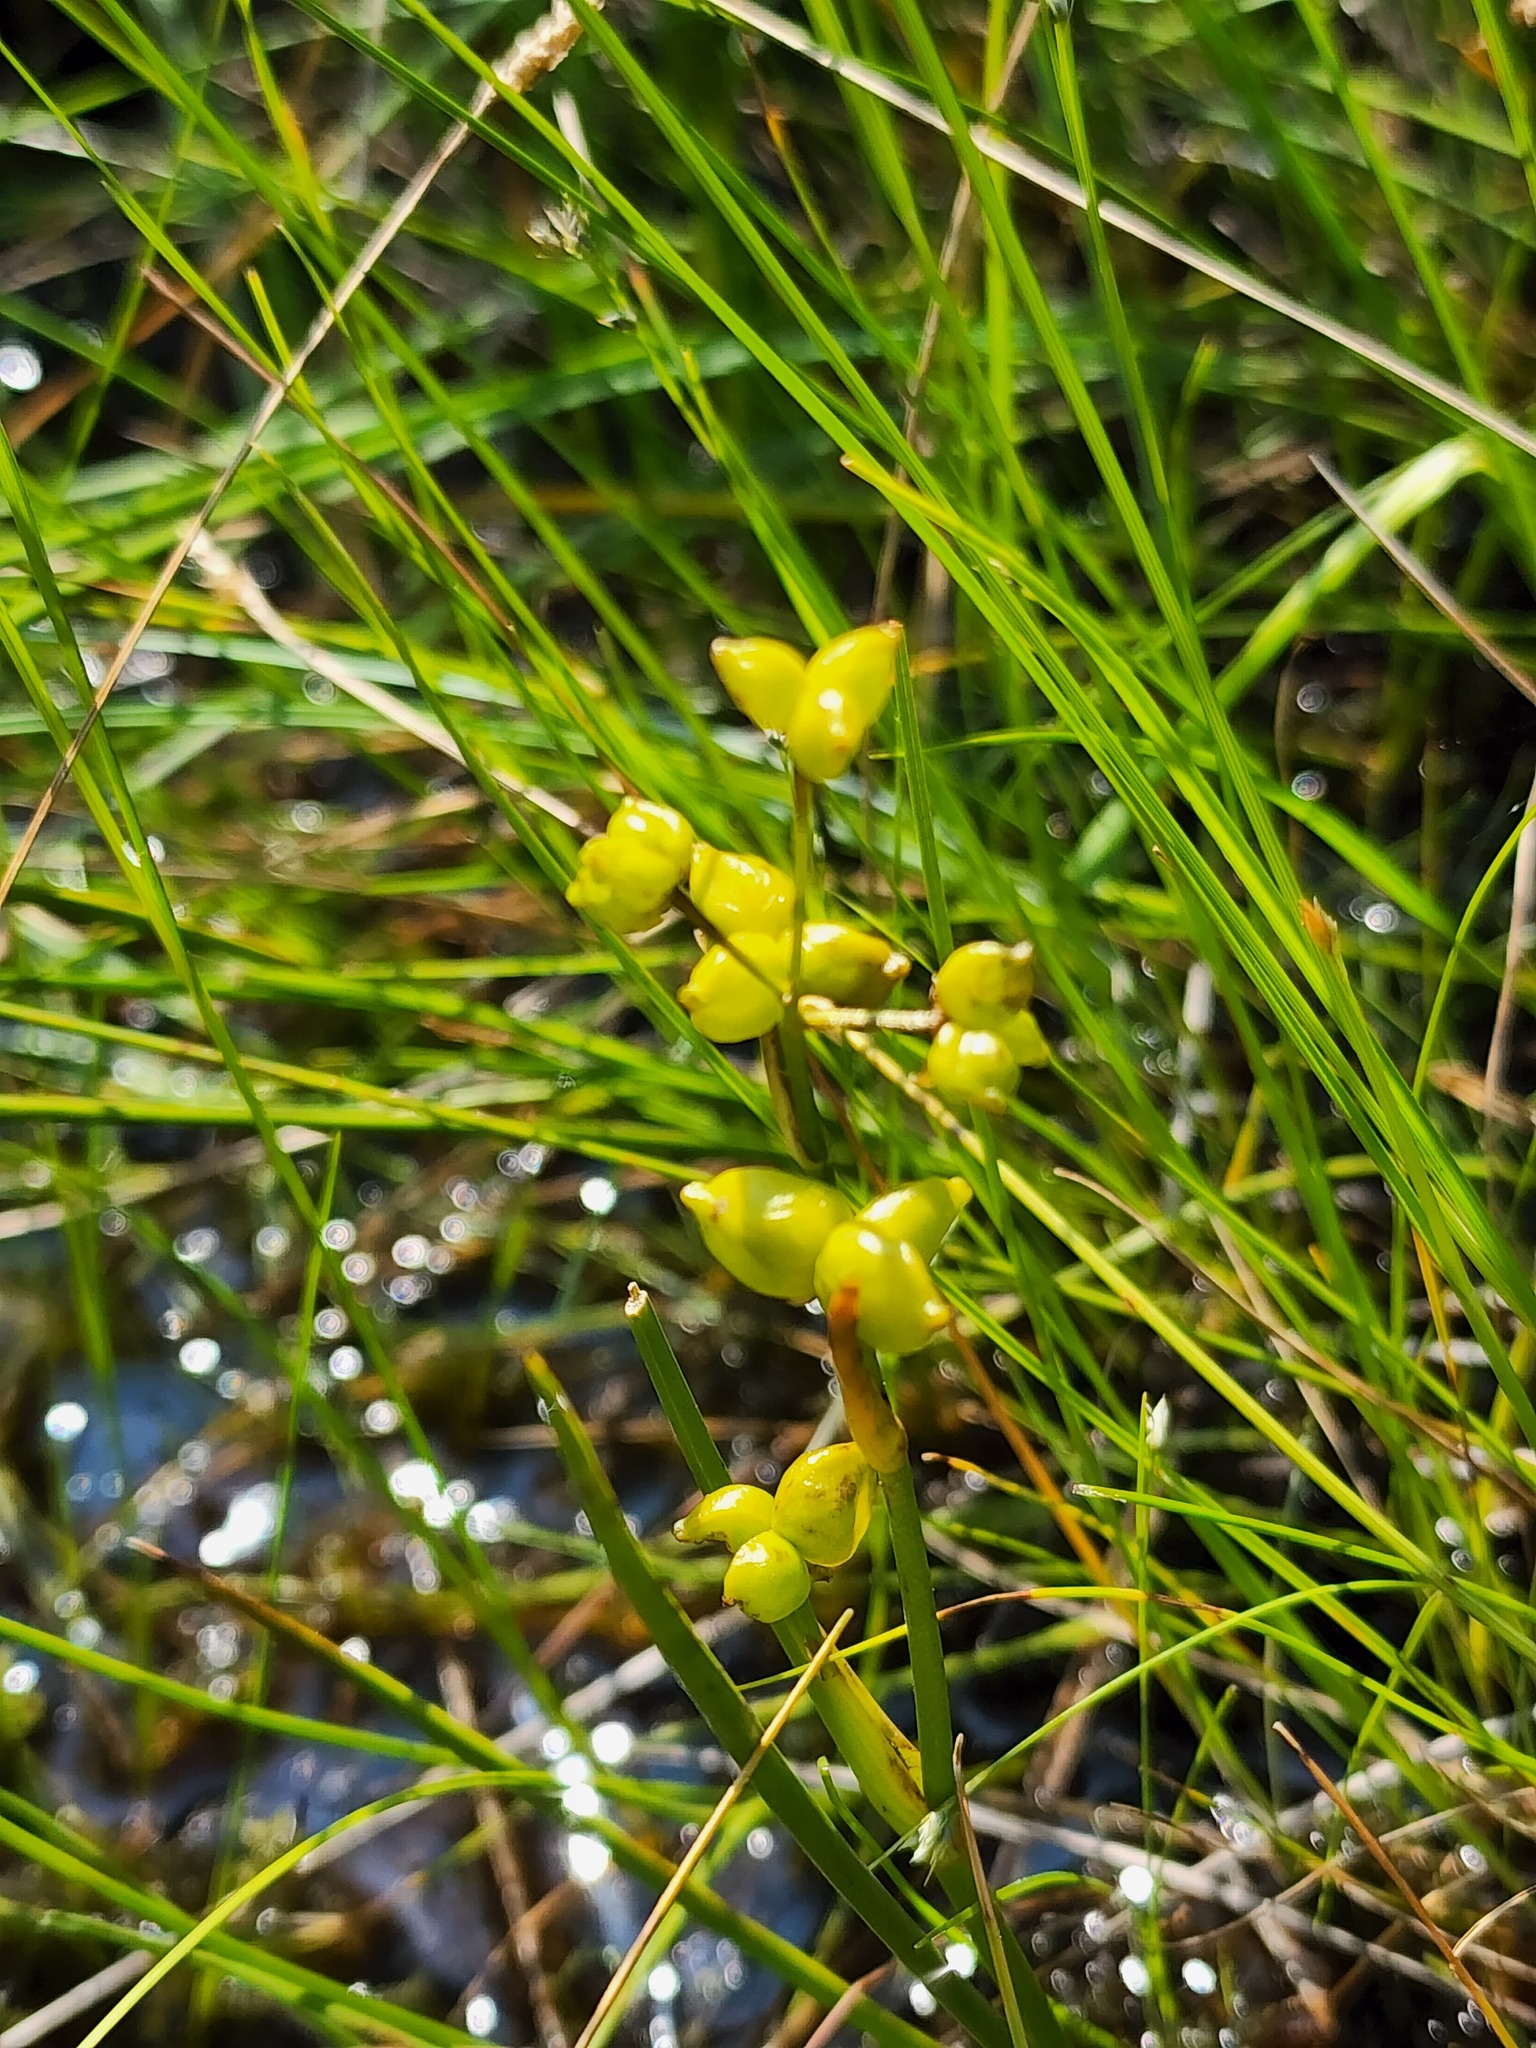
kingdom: Plantae
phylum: Tracheophyta
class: Liliopsida
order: Alismatales
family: Scheuchzeriaceae
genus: Scheuchzeria
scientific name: Scheuchzeria palustris
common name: Rannoch-rush
